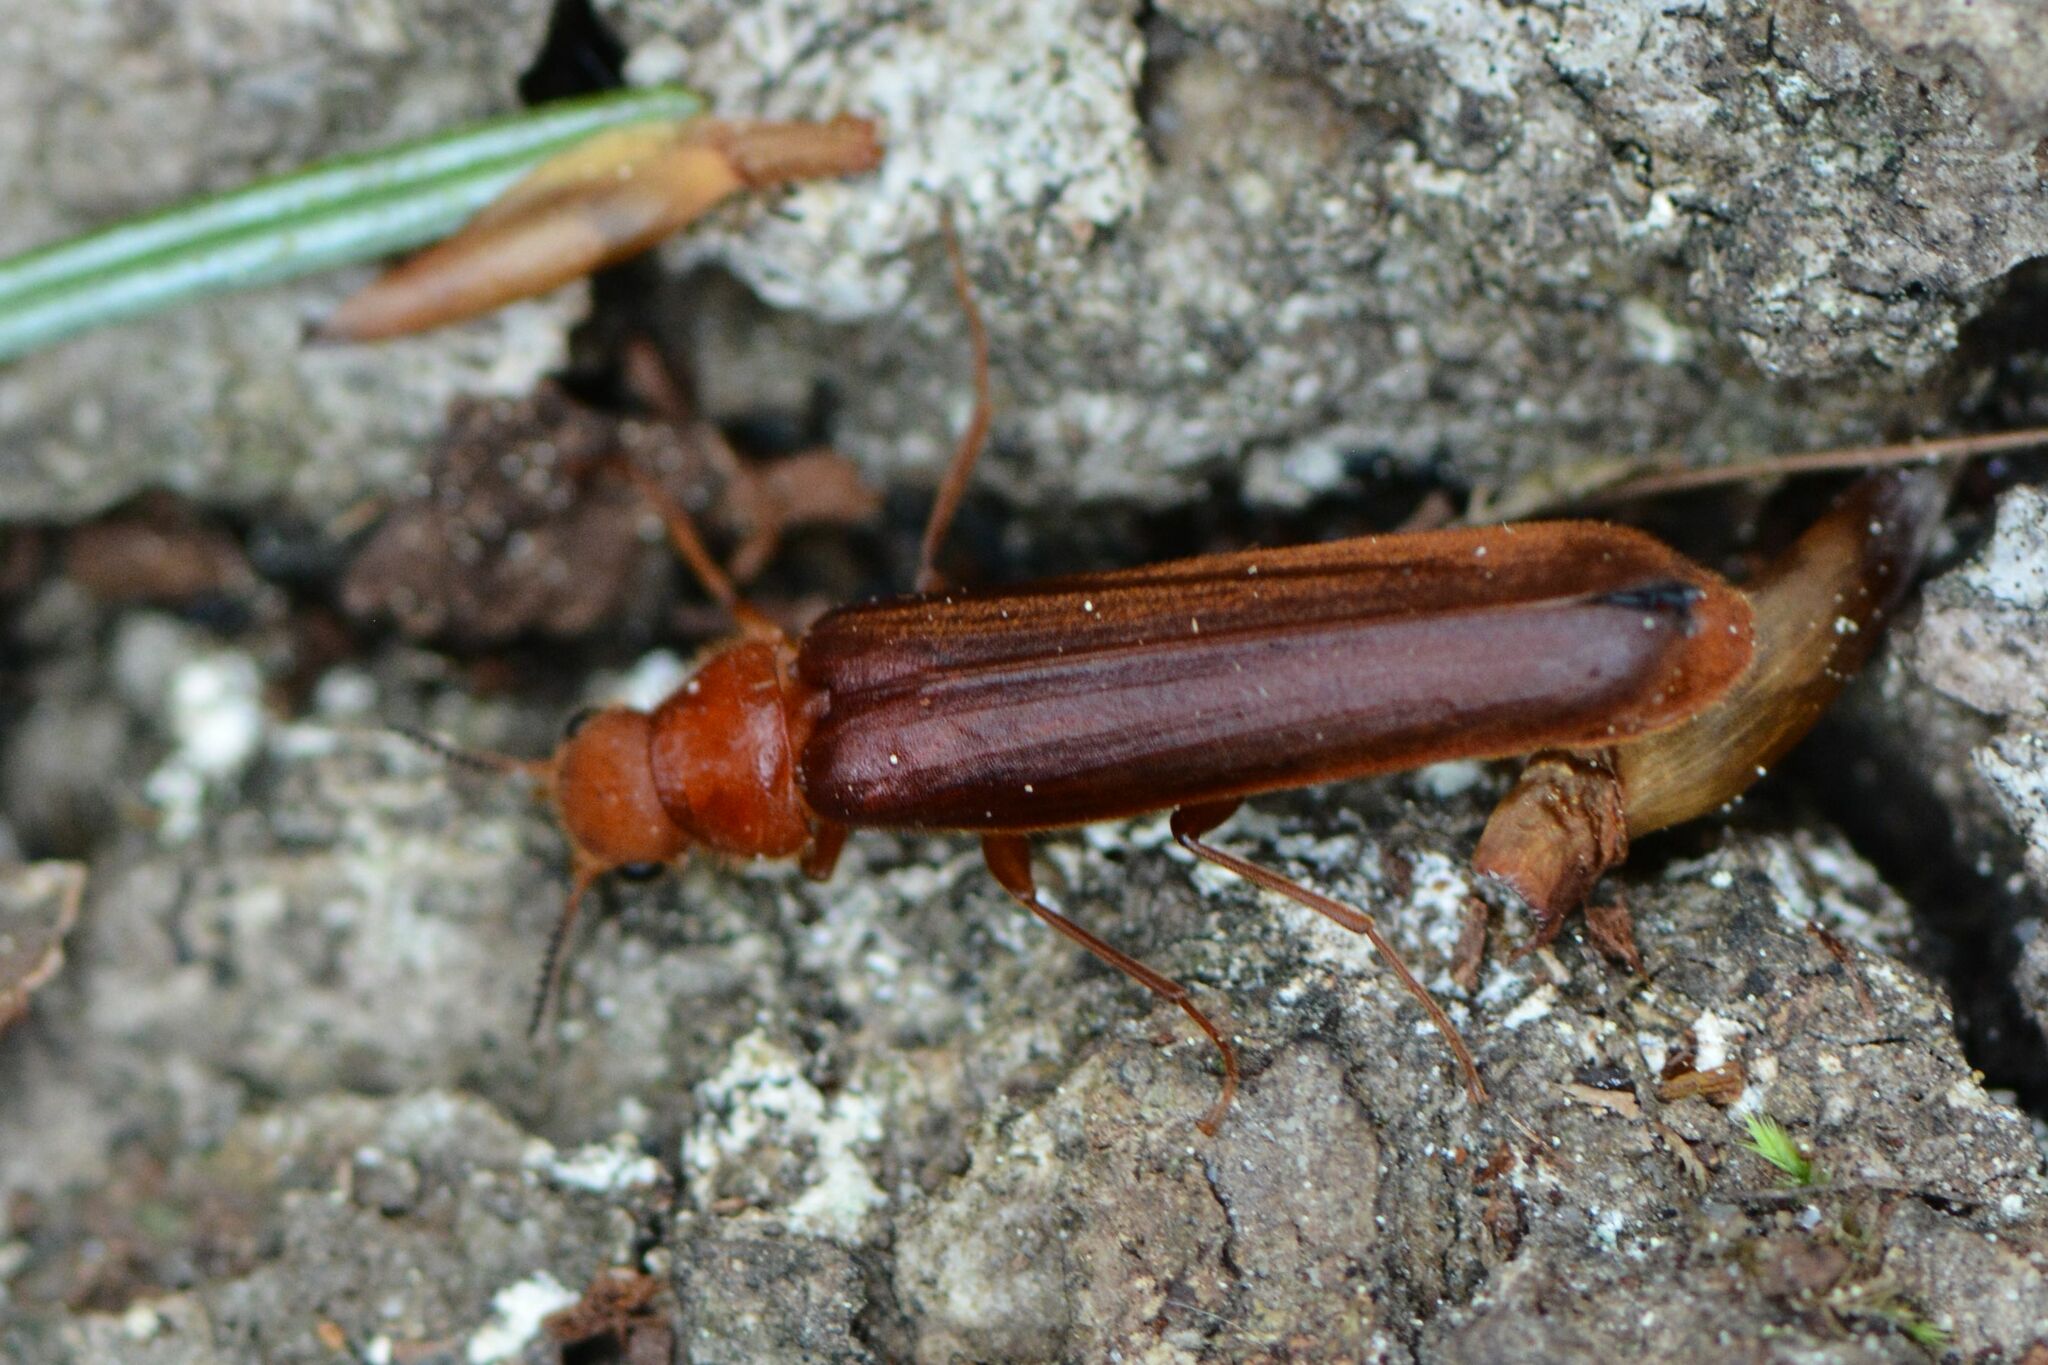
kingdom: Animalia
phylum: Arthropoda
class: Insecta
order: Coleoptera
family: Lymexylidae
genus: Hylecoetus
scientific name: Hylecoetus dermestoides
